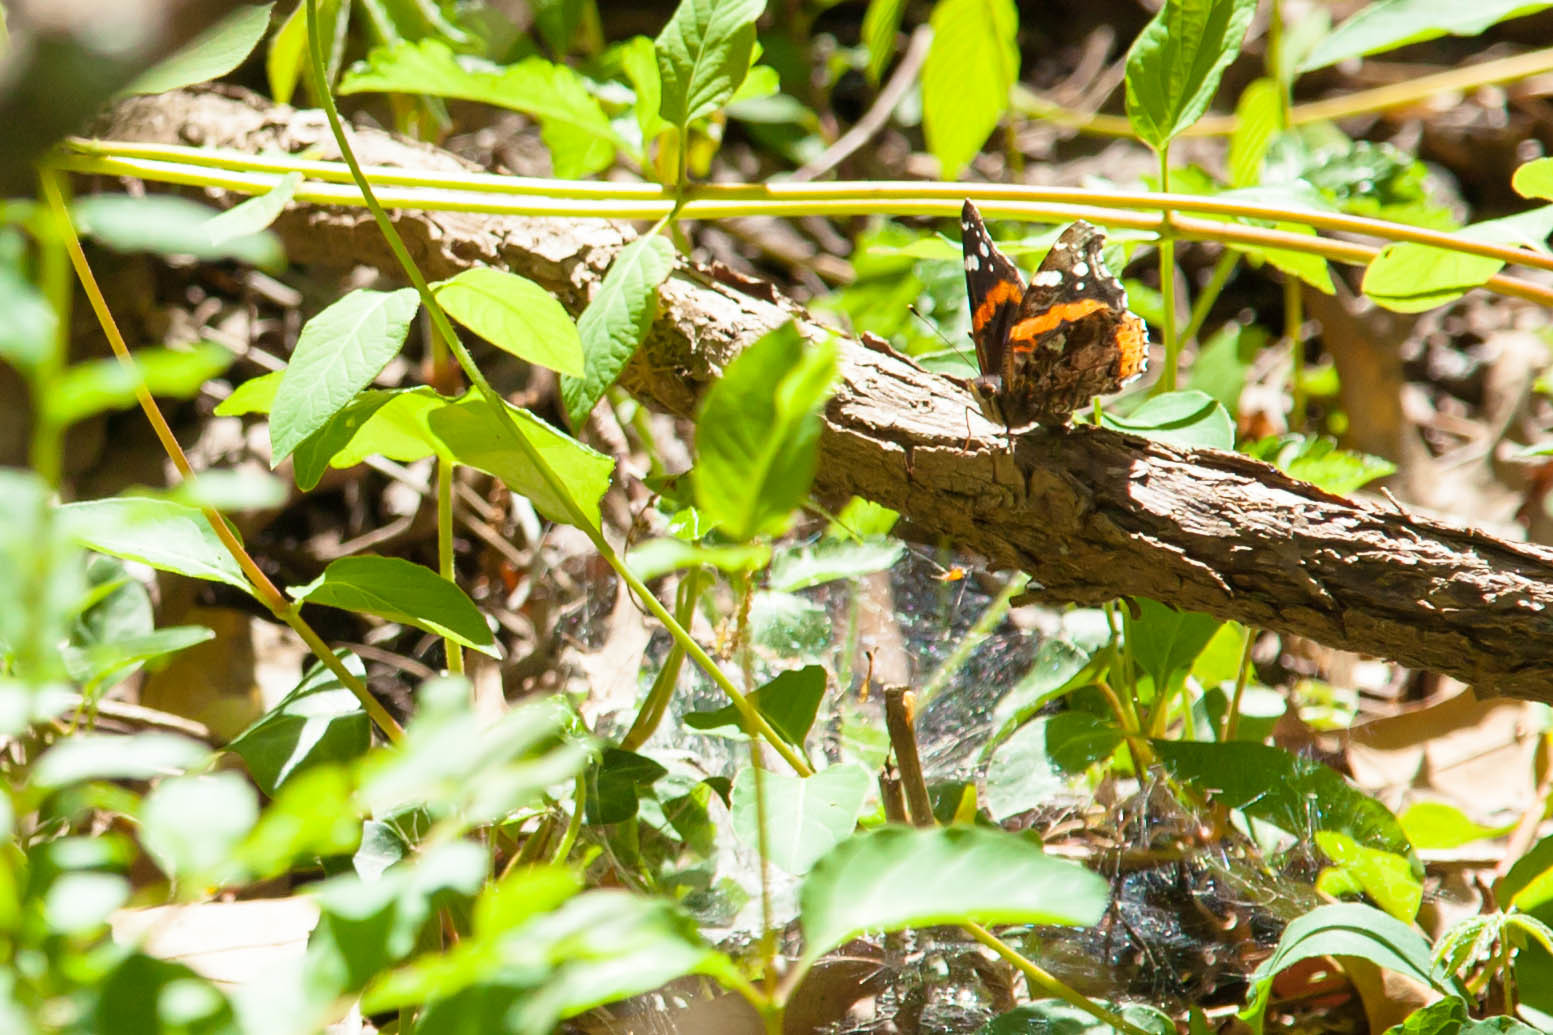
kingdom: Animalia
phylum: Arthropoda
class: Insecta
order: Lepidoptera
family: Nymphalidae
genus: Vanessa
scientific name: Vanessa atalanta
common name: Red admiral
